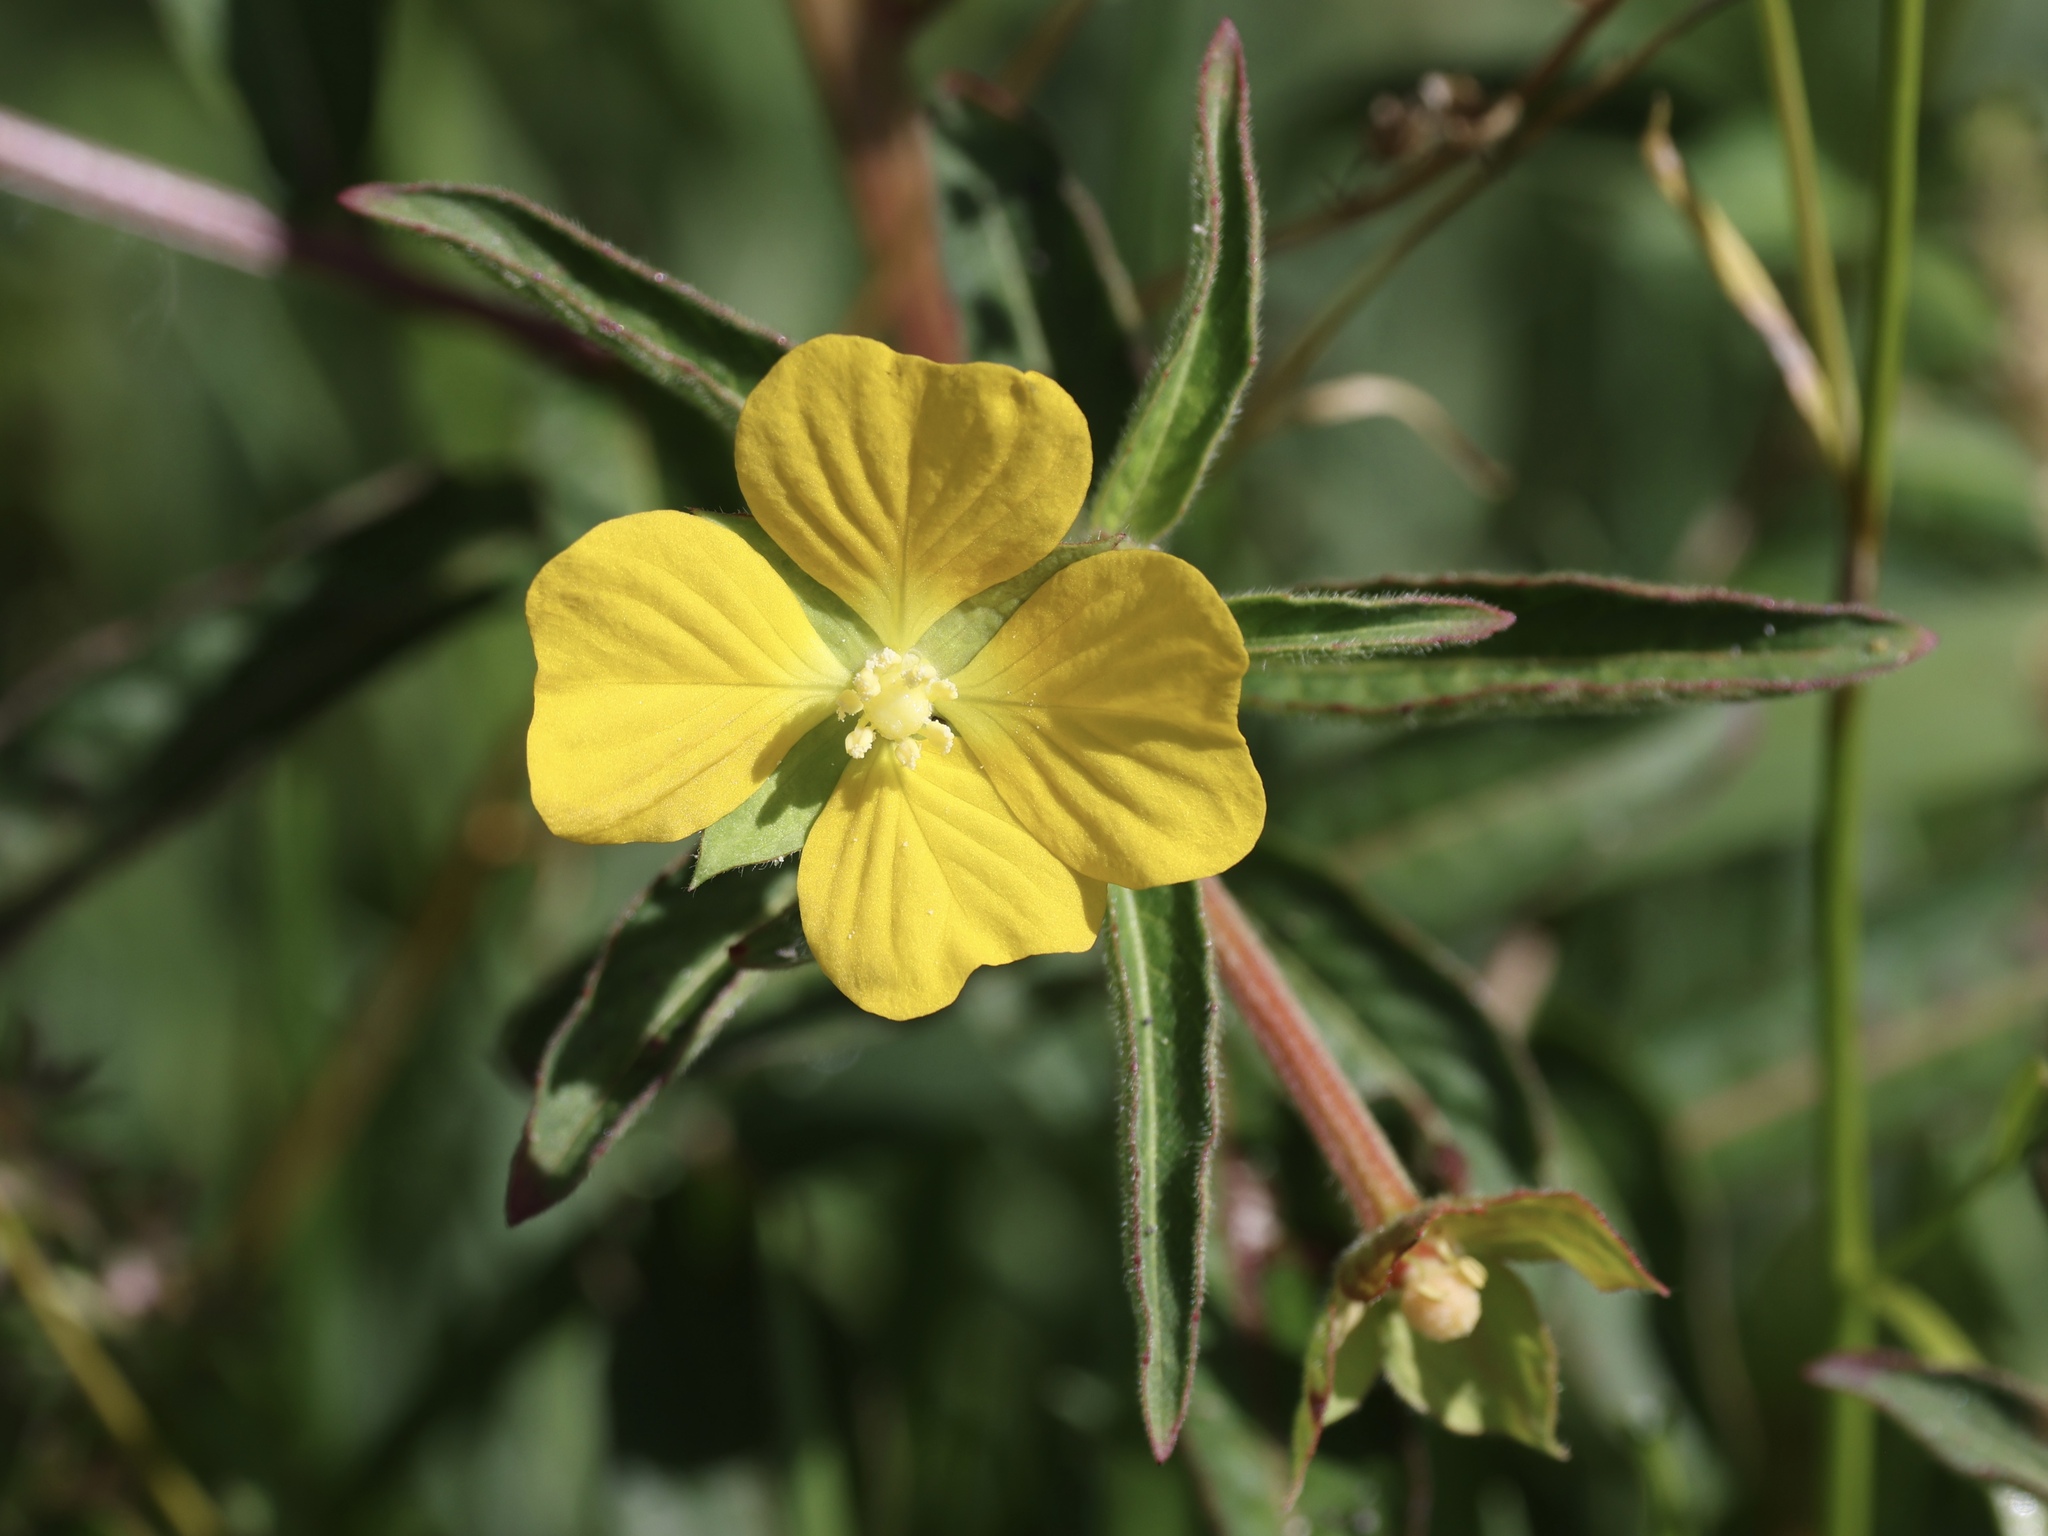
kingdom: Plantae
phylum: Tracheophyta
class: Magnoliopsida
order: Myrtales
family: Onagraceae
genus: Ludwigia
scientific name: Ludwigia octovalvis
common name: Water-primrose
